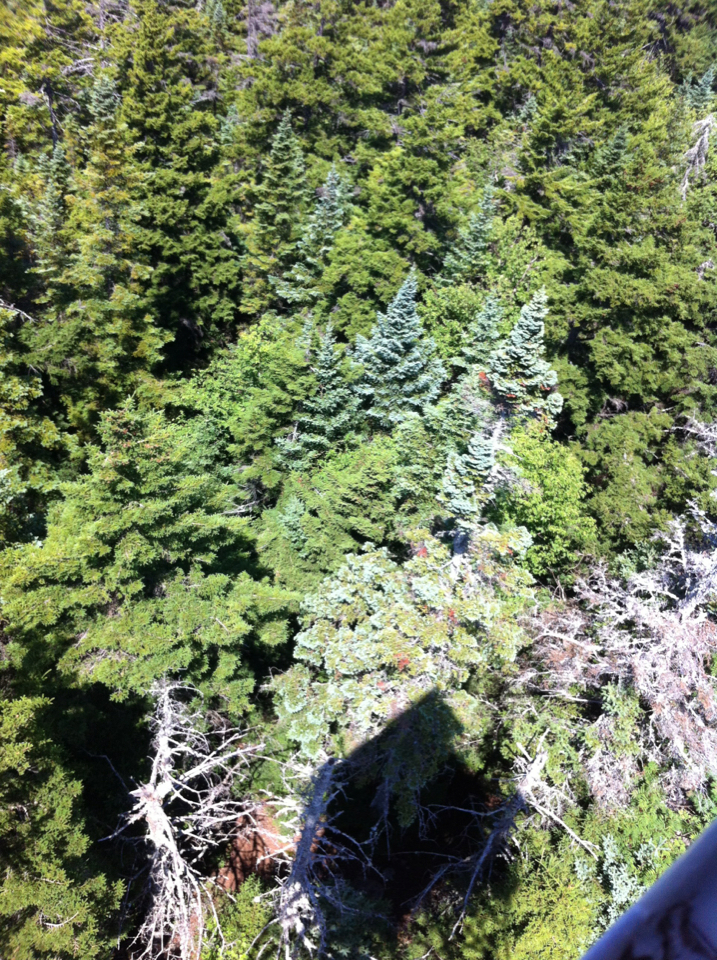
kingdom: Plantae
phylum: Tracheophyta
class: Pinopsida
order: Pinales
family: Pinaceae
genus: Abies
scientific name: Abies balsamea
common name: Balsam fir
